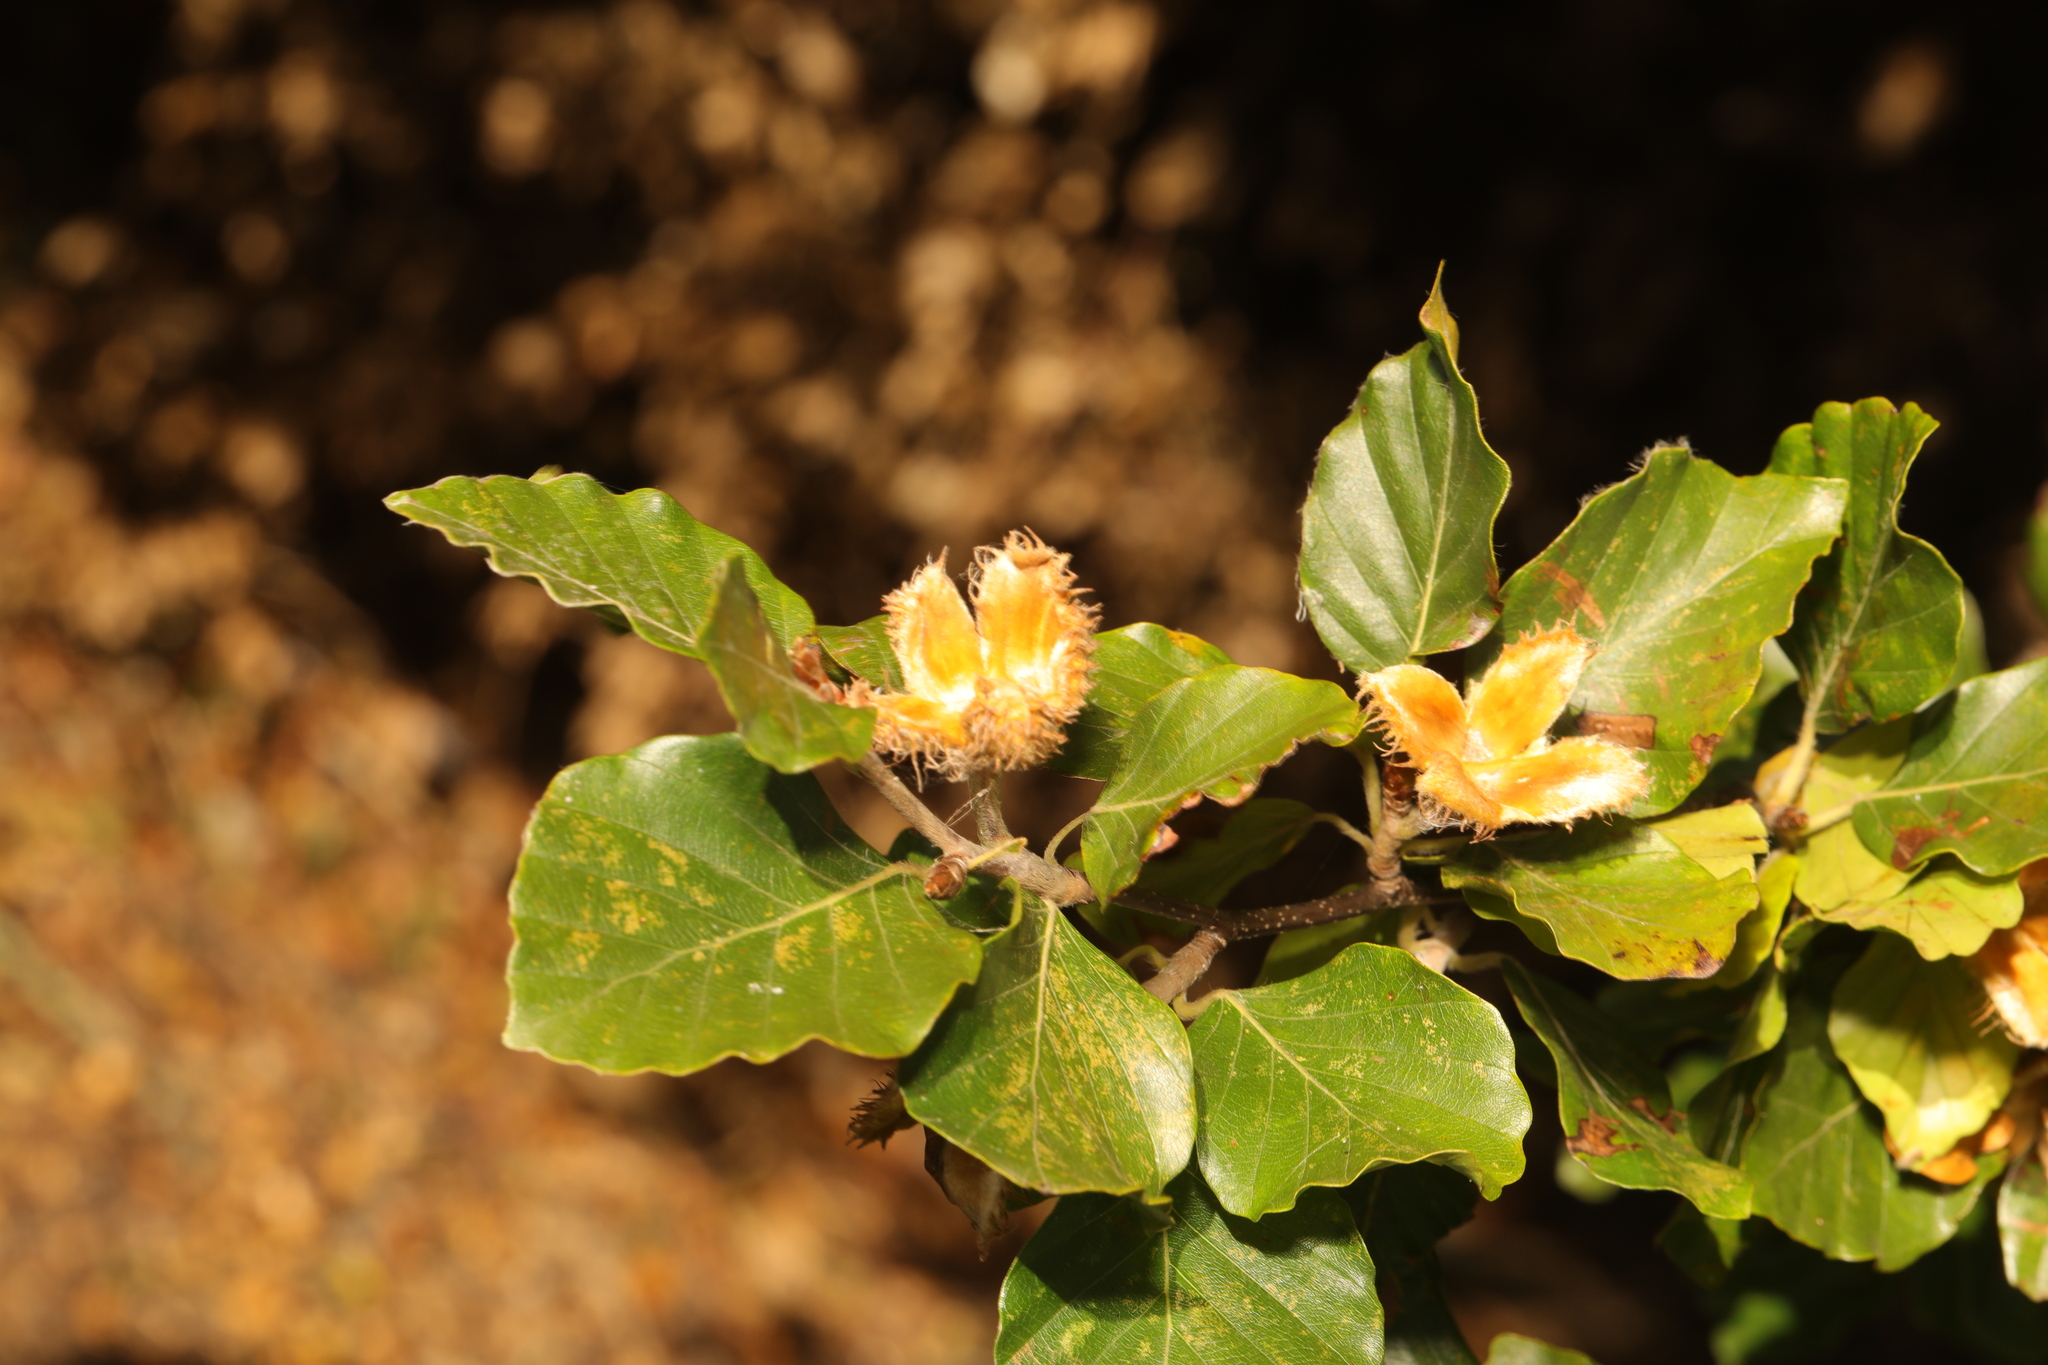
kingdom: Plantae
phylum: Tracheophyta
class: Magnoliopsida
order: Fagales
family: Fagaceae
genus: Fagus
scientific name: Fagus sylvatica
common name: Beech
